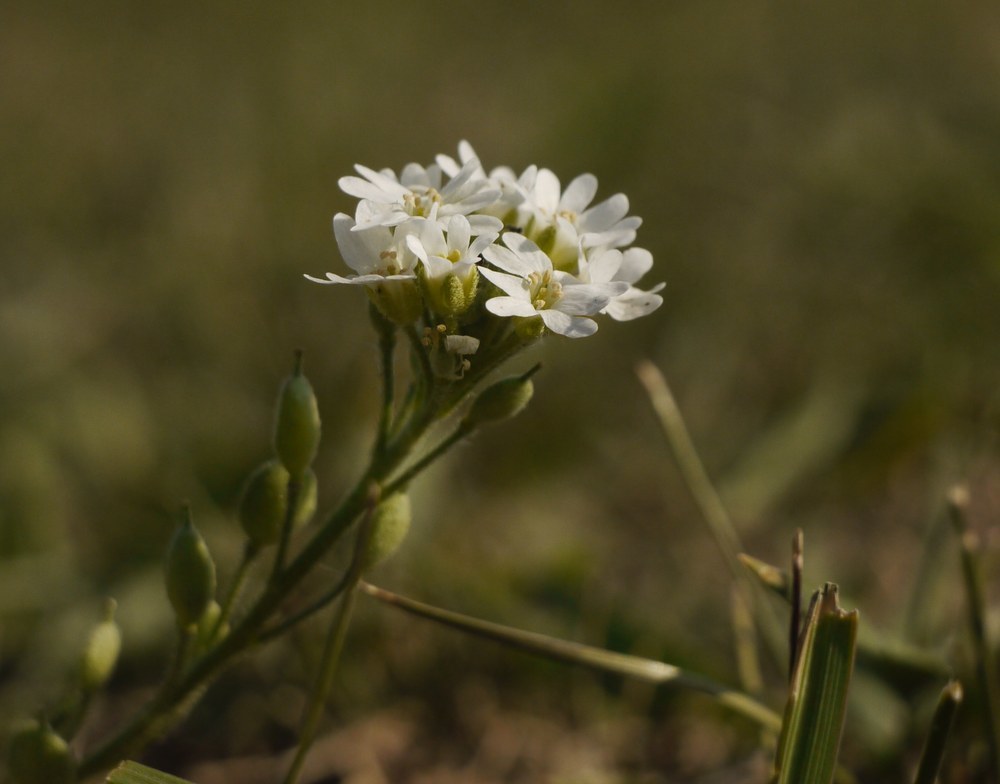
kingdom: Plantae
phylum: Tracheophyta
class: Magnoliopsida
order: Brassicales
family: Brassicaceae
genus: Berteroa
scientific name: Berteroa incana
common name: Hoary alison
